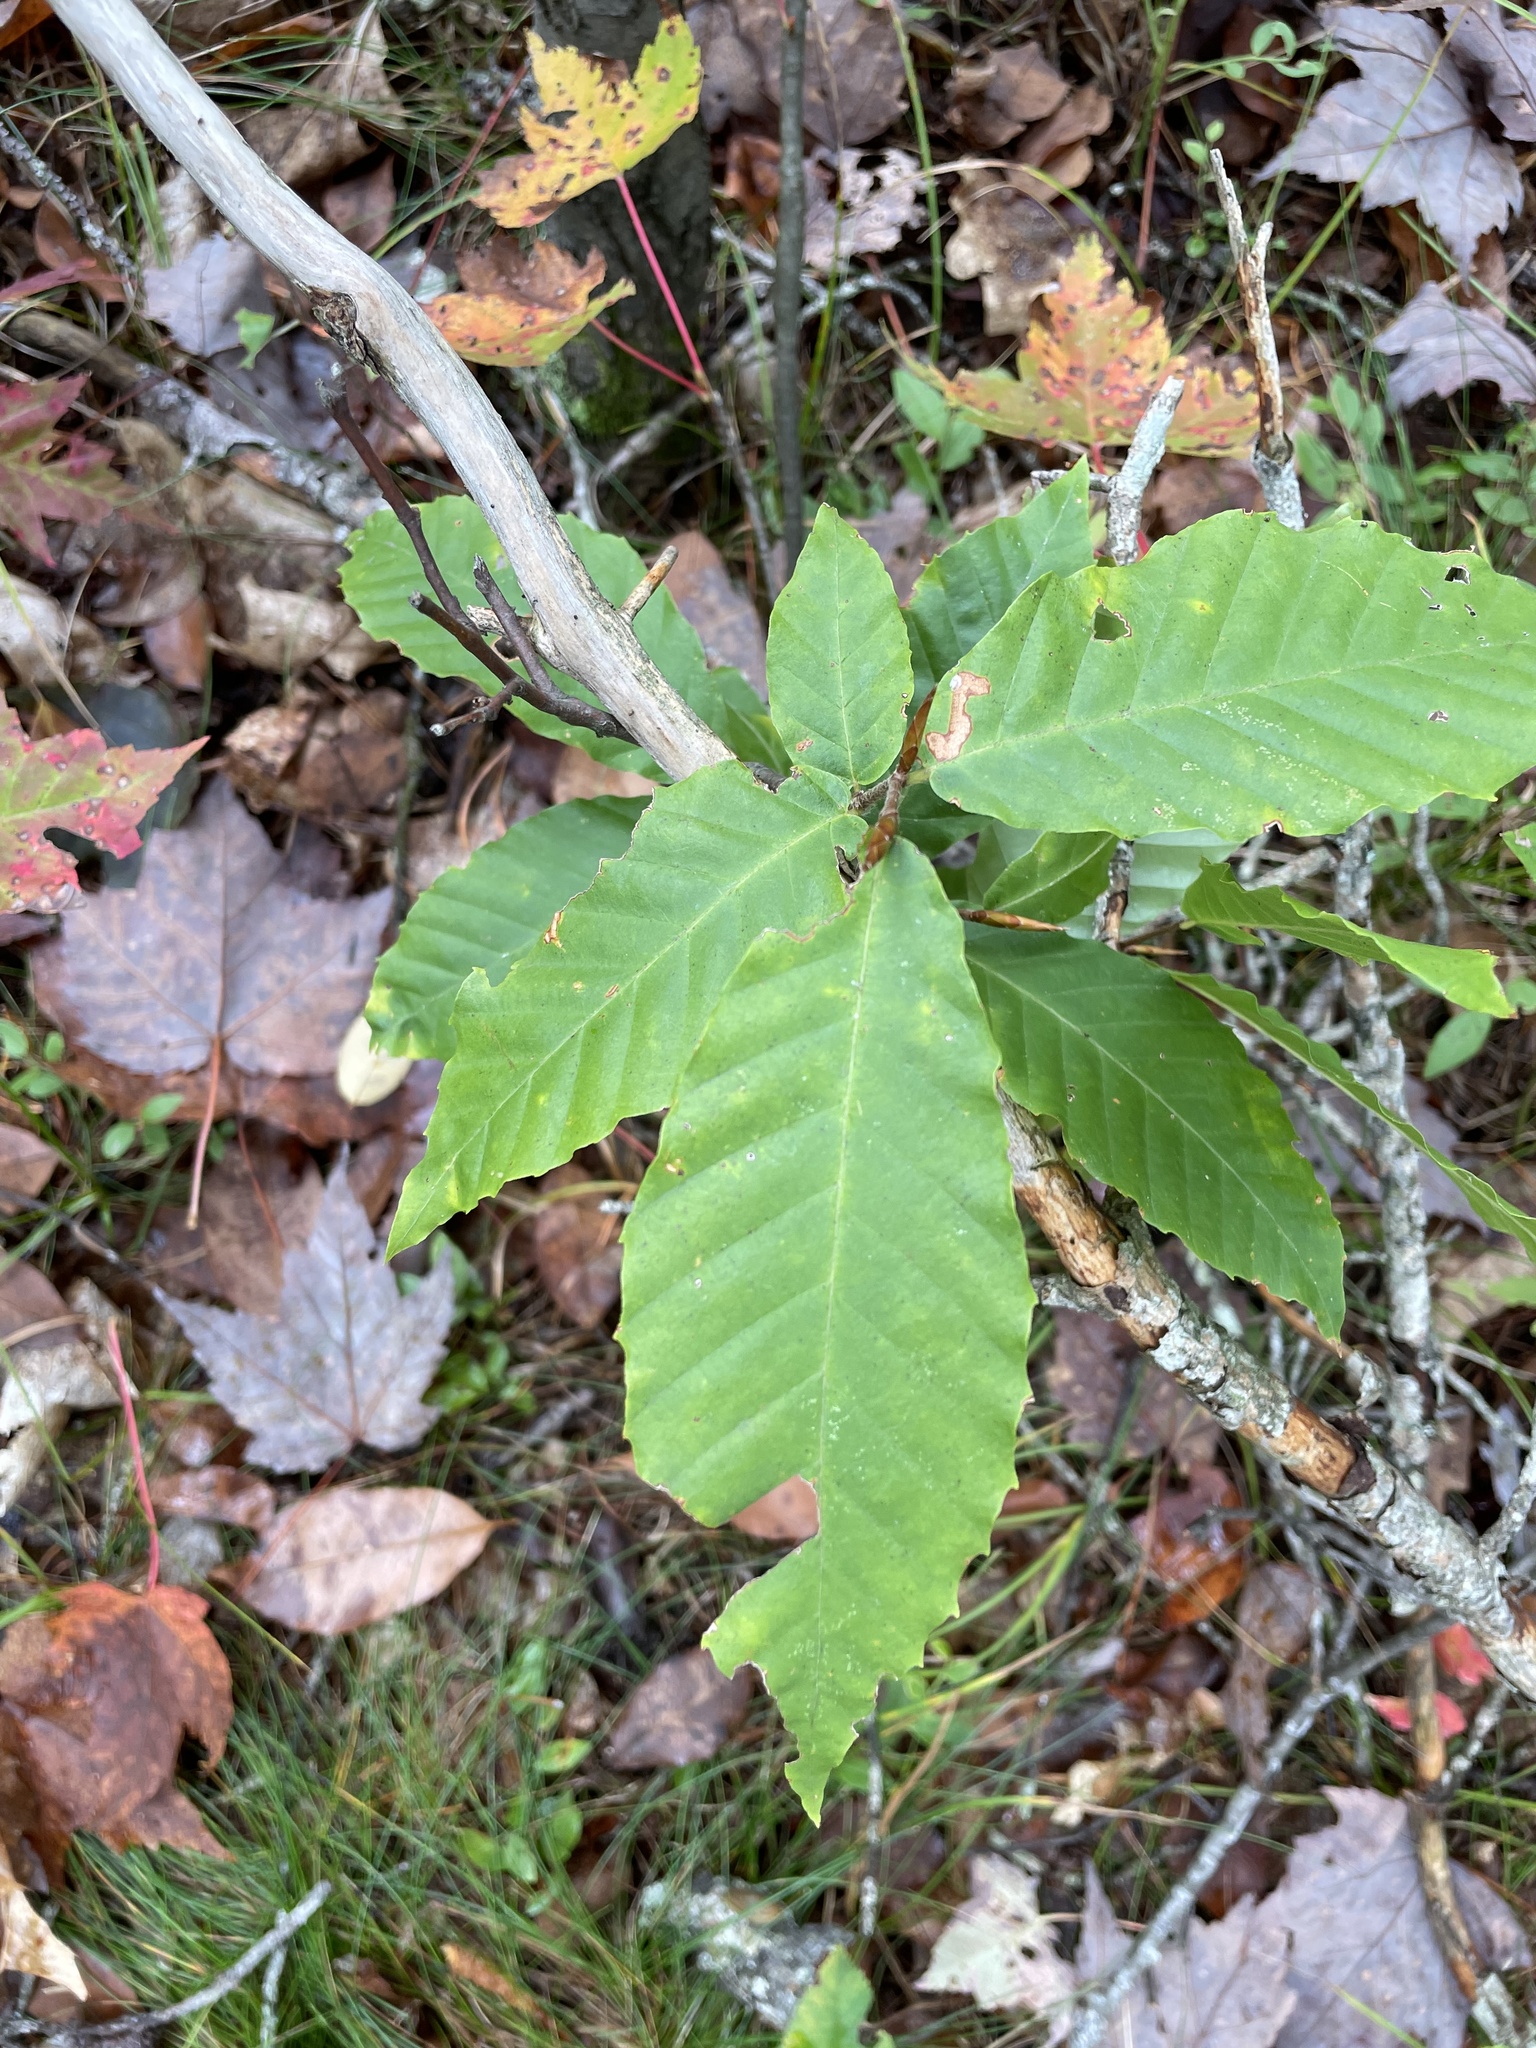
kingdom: Plantae
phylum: Tracheophyta
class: Magnoliopsida
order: Fagales
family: Fagaceae
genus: Fagus
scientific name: Fagus grandifolia
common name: American beech
